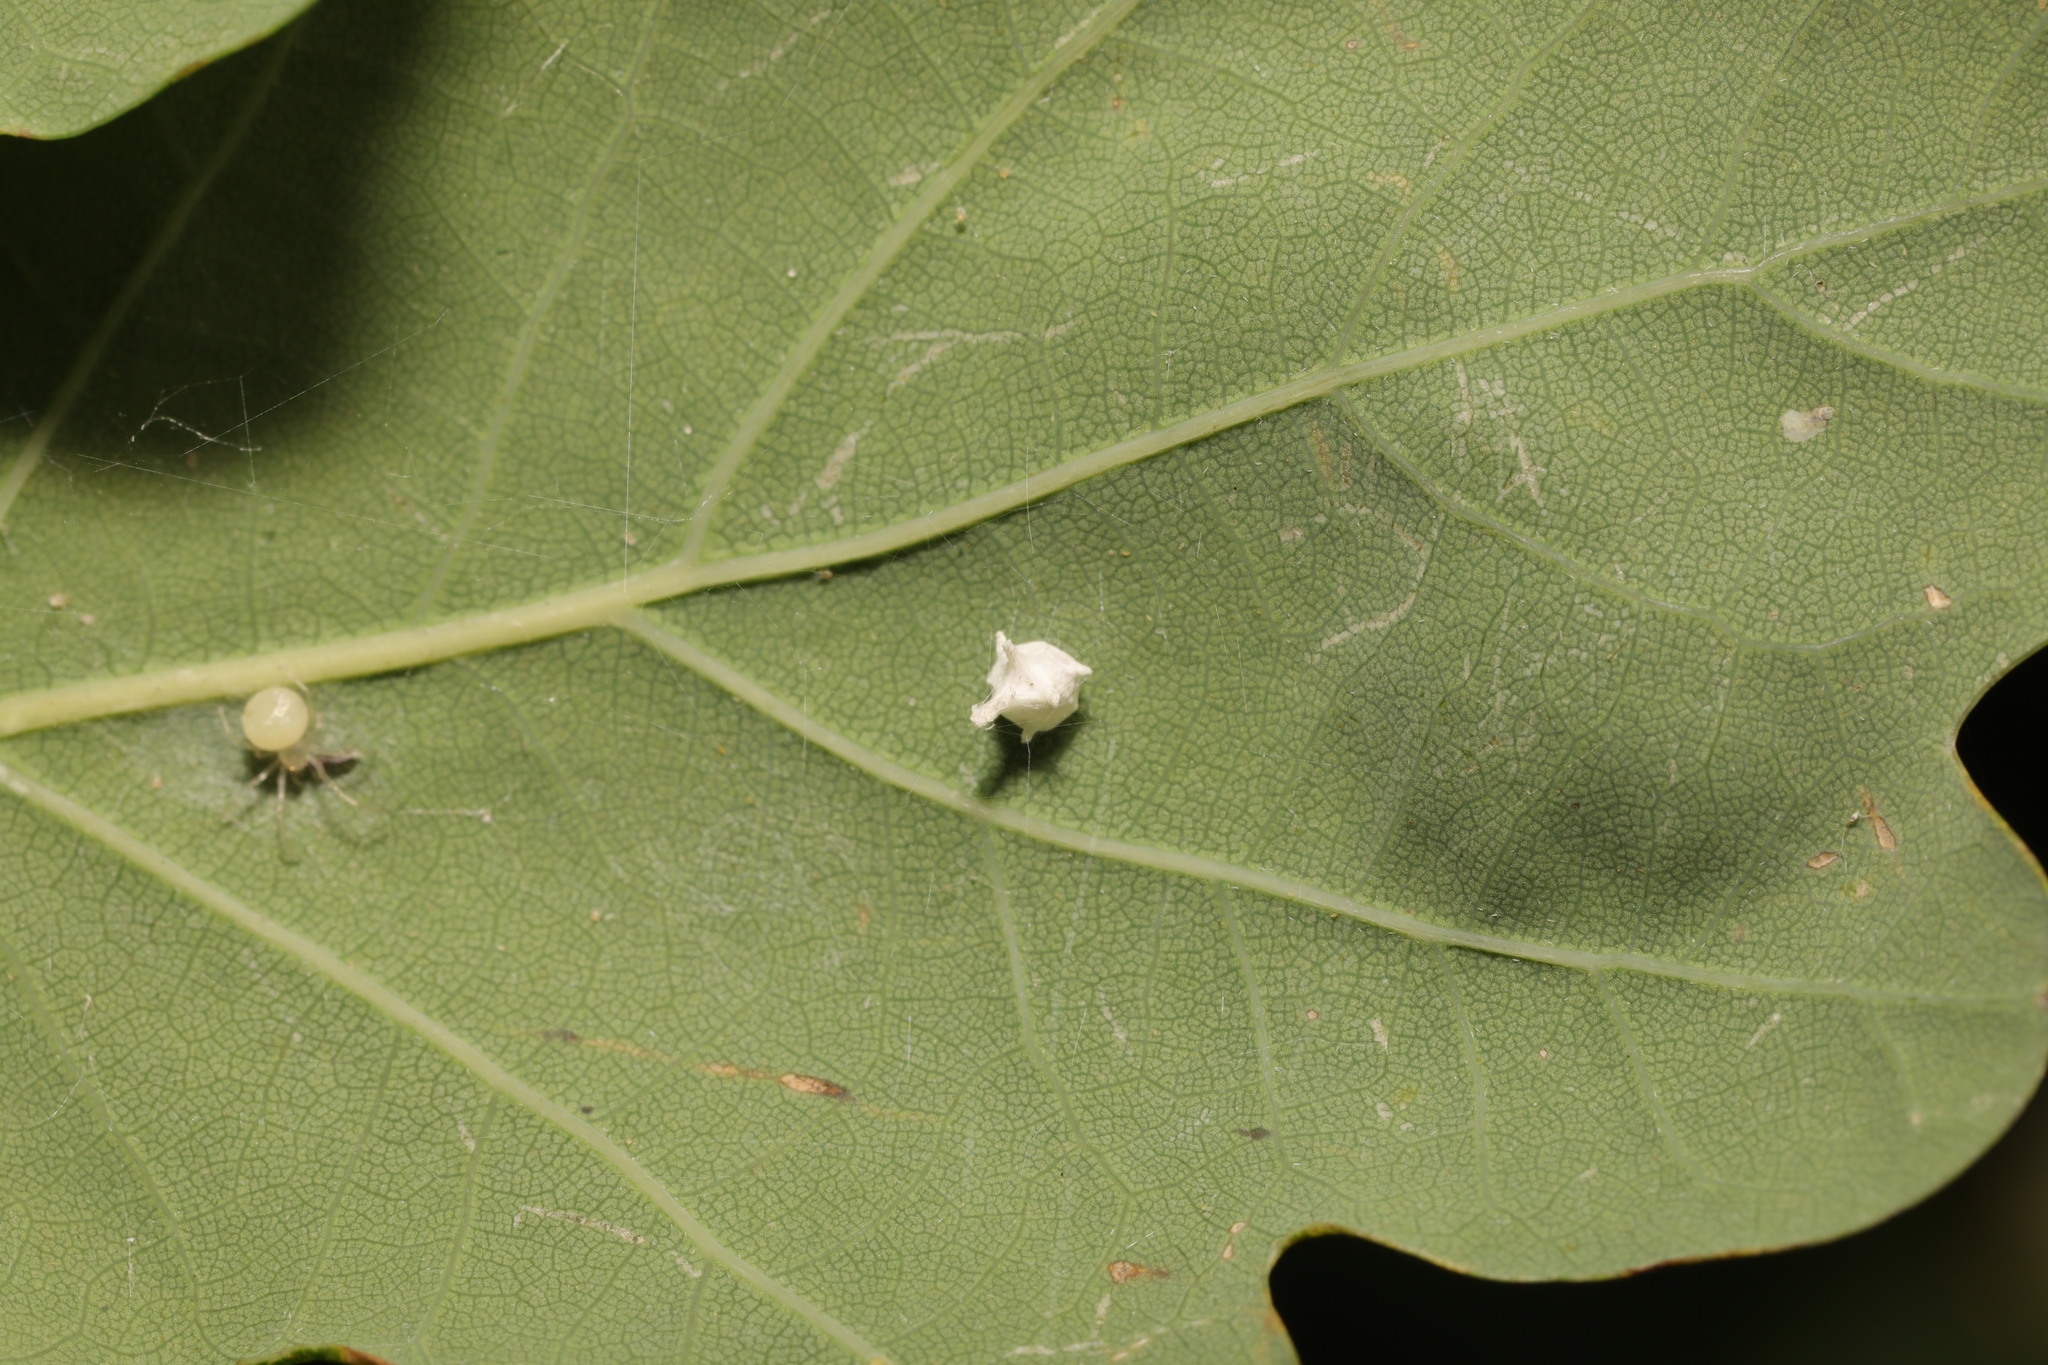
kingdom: Animalia
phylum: Arthropoda
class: Arachnida
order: Araneae
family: Theridiidae
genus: Paidiscura
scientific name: Paidiscura pallens
